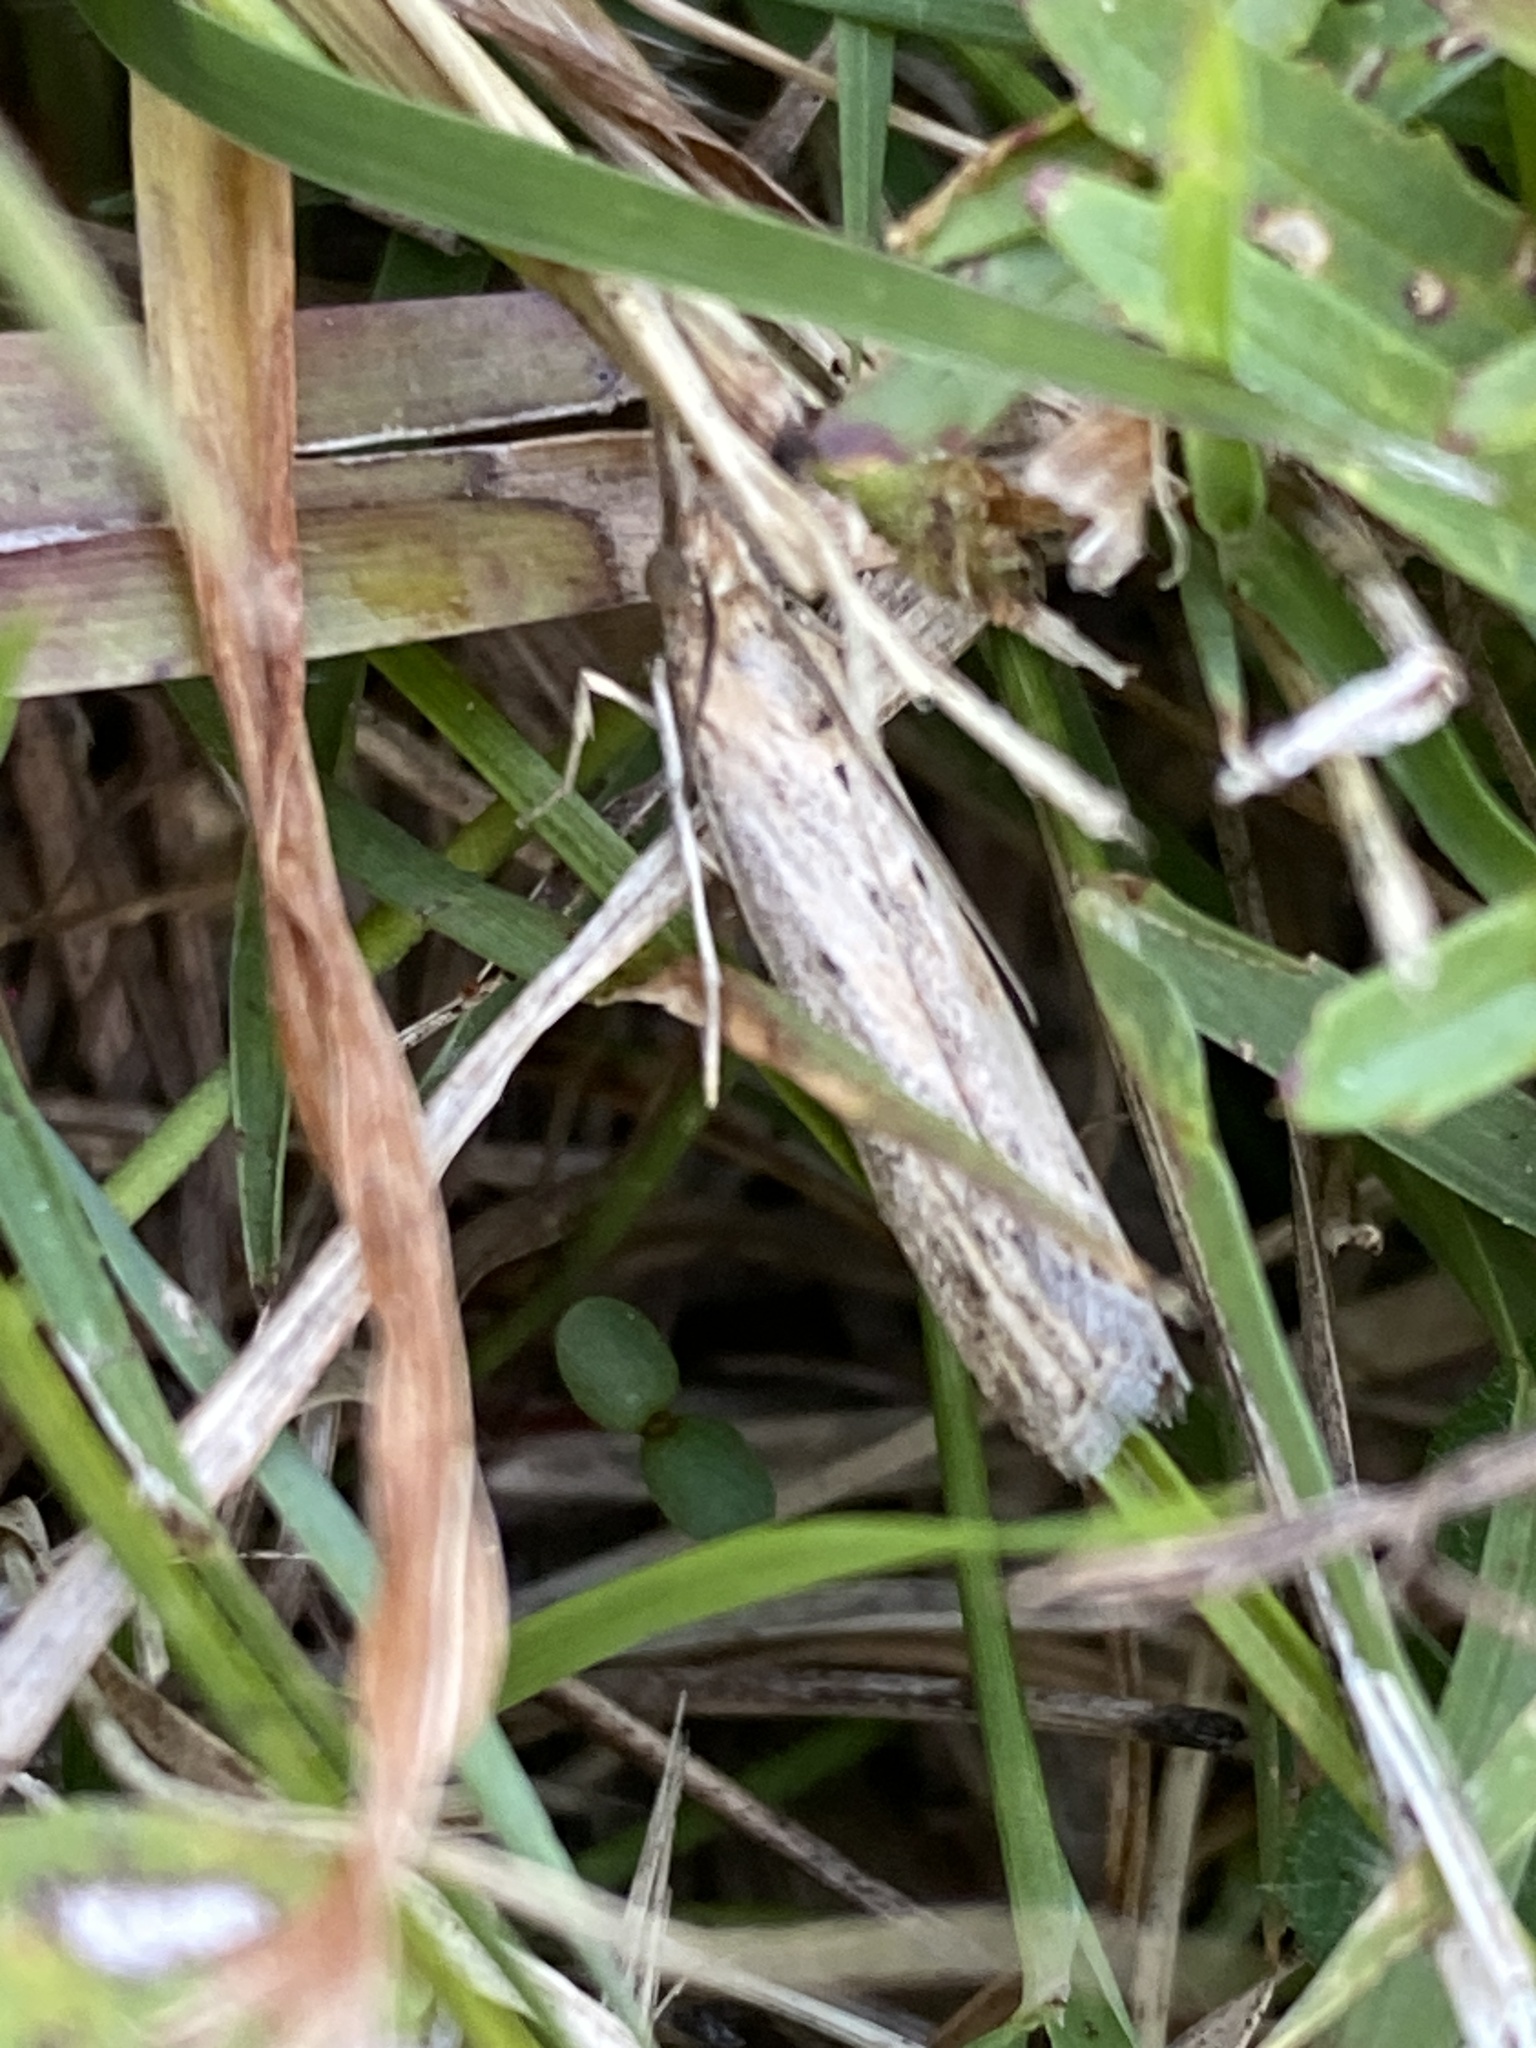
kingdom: Animalia
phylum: Arthropoda
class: Insecta
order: Lepidoptera
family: Pyralidae
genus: Faveria
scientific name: Faveria tritalis
